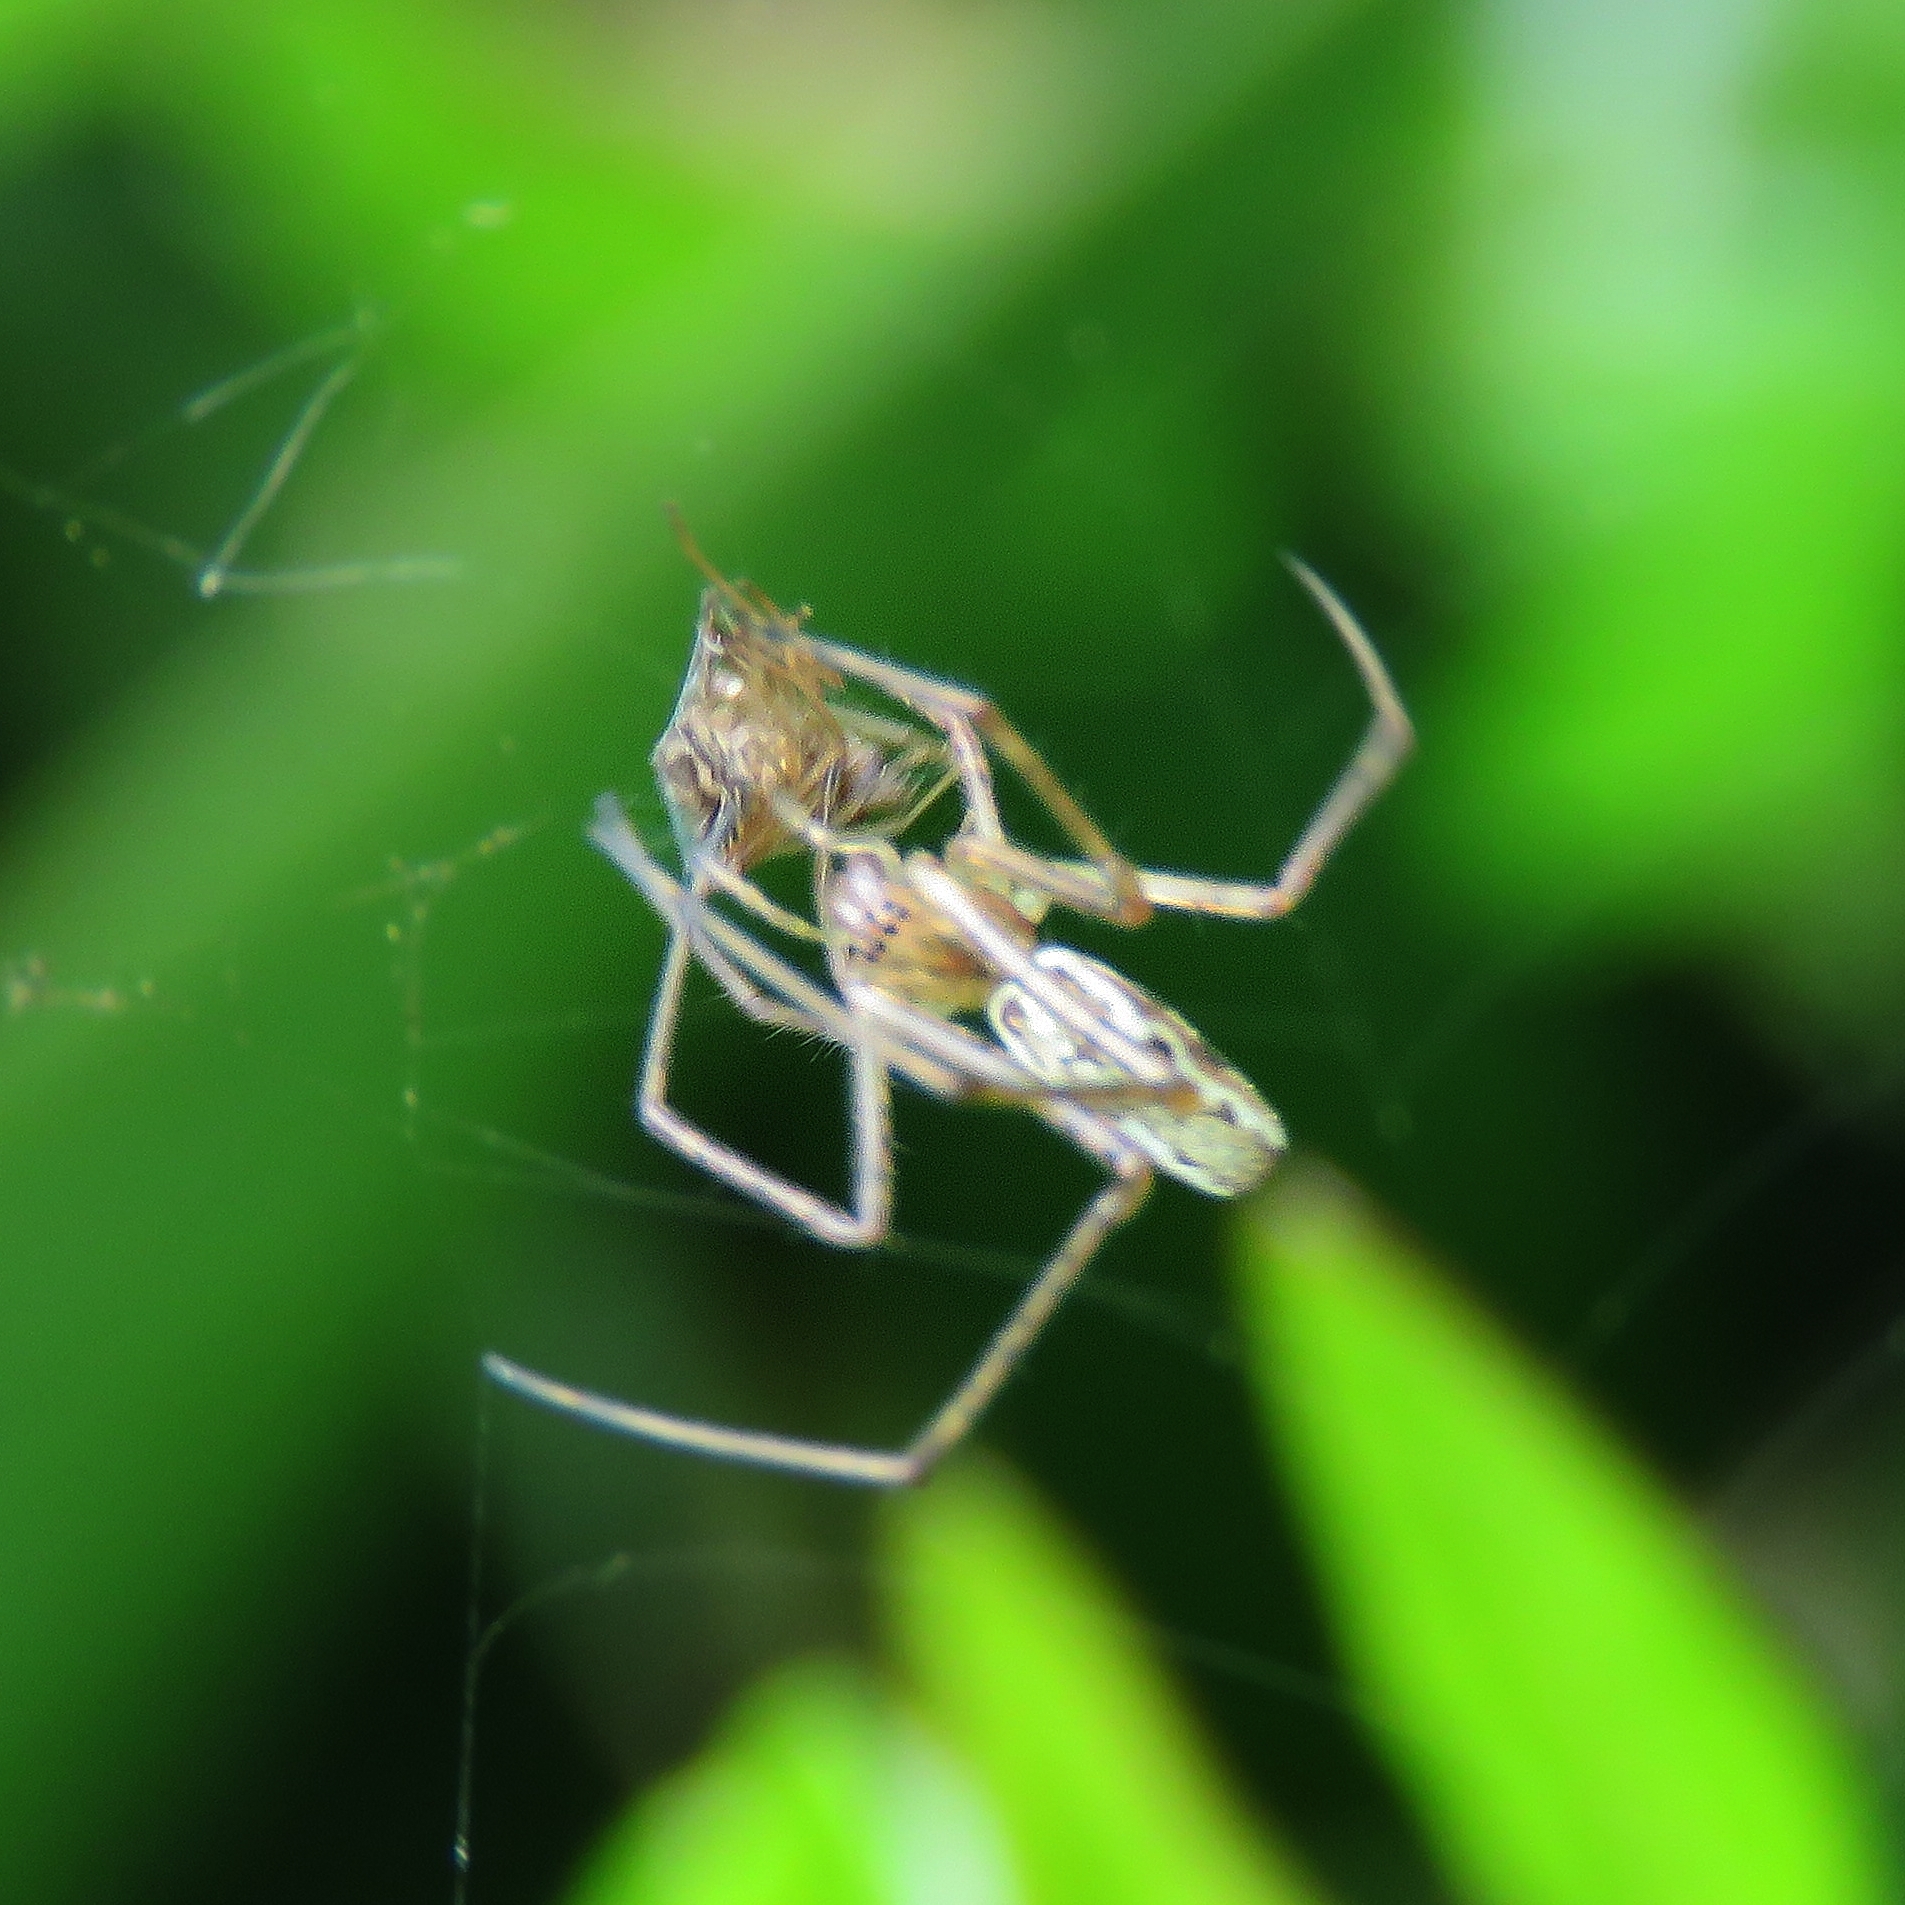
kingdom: Animalia
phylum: Arthropoda
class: Arachnida
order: Araneae
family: Tetragnathidae
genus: Tetragnatha
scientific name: Tetragnatha
